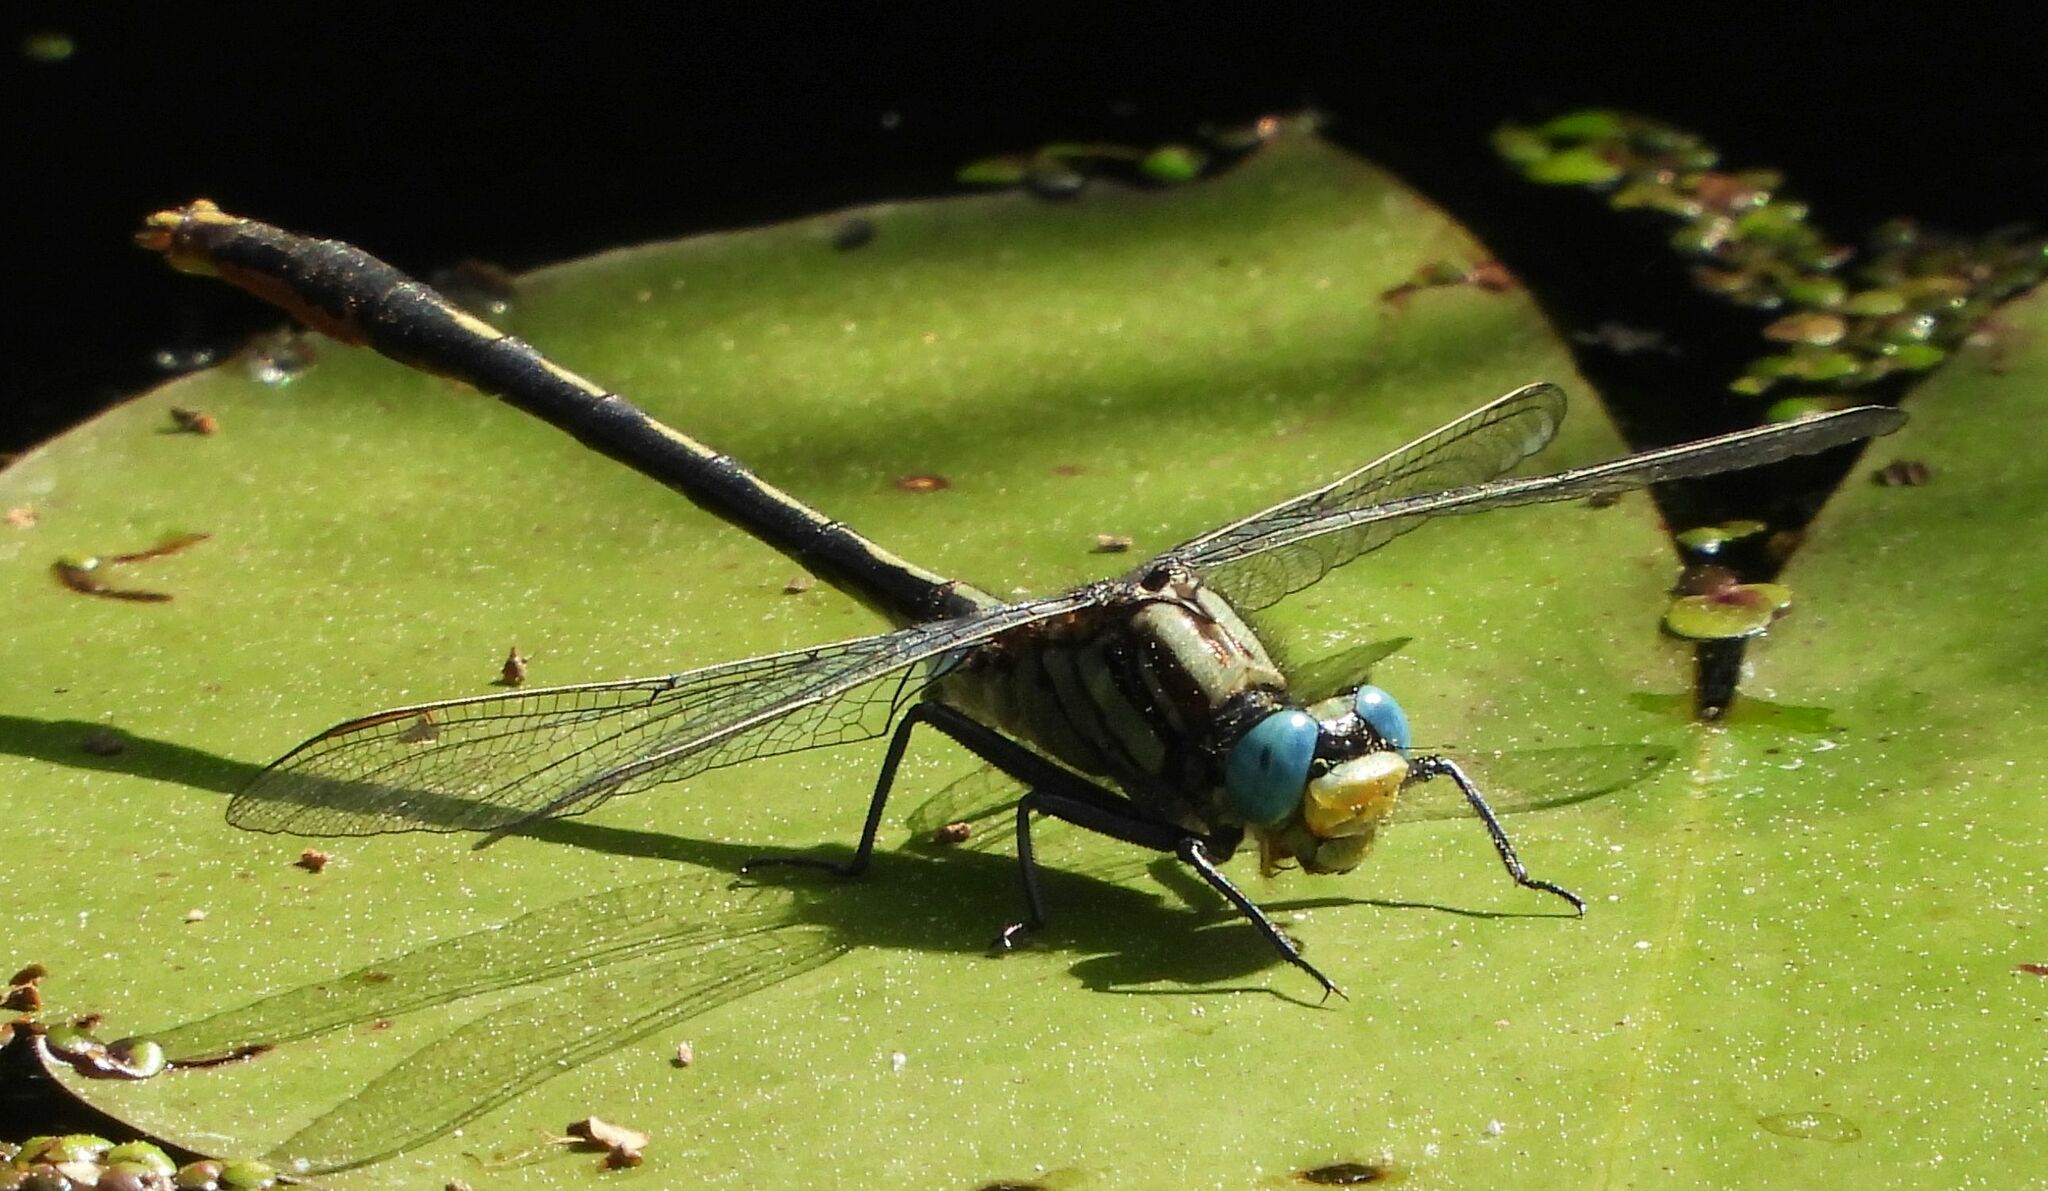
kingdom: Animalia
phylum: Arthropoda
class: Insecta
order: Odonata
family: Gomphidae
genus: Arigomphus
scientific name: Arigomphus furcifer
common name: Lilypad clubtail
